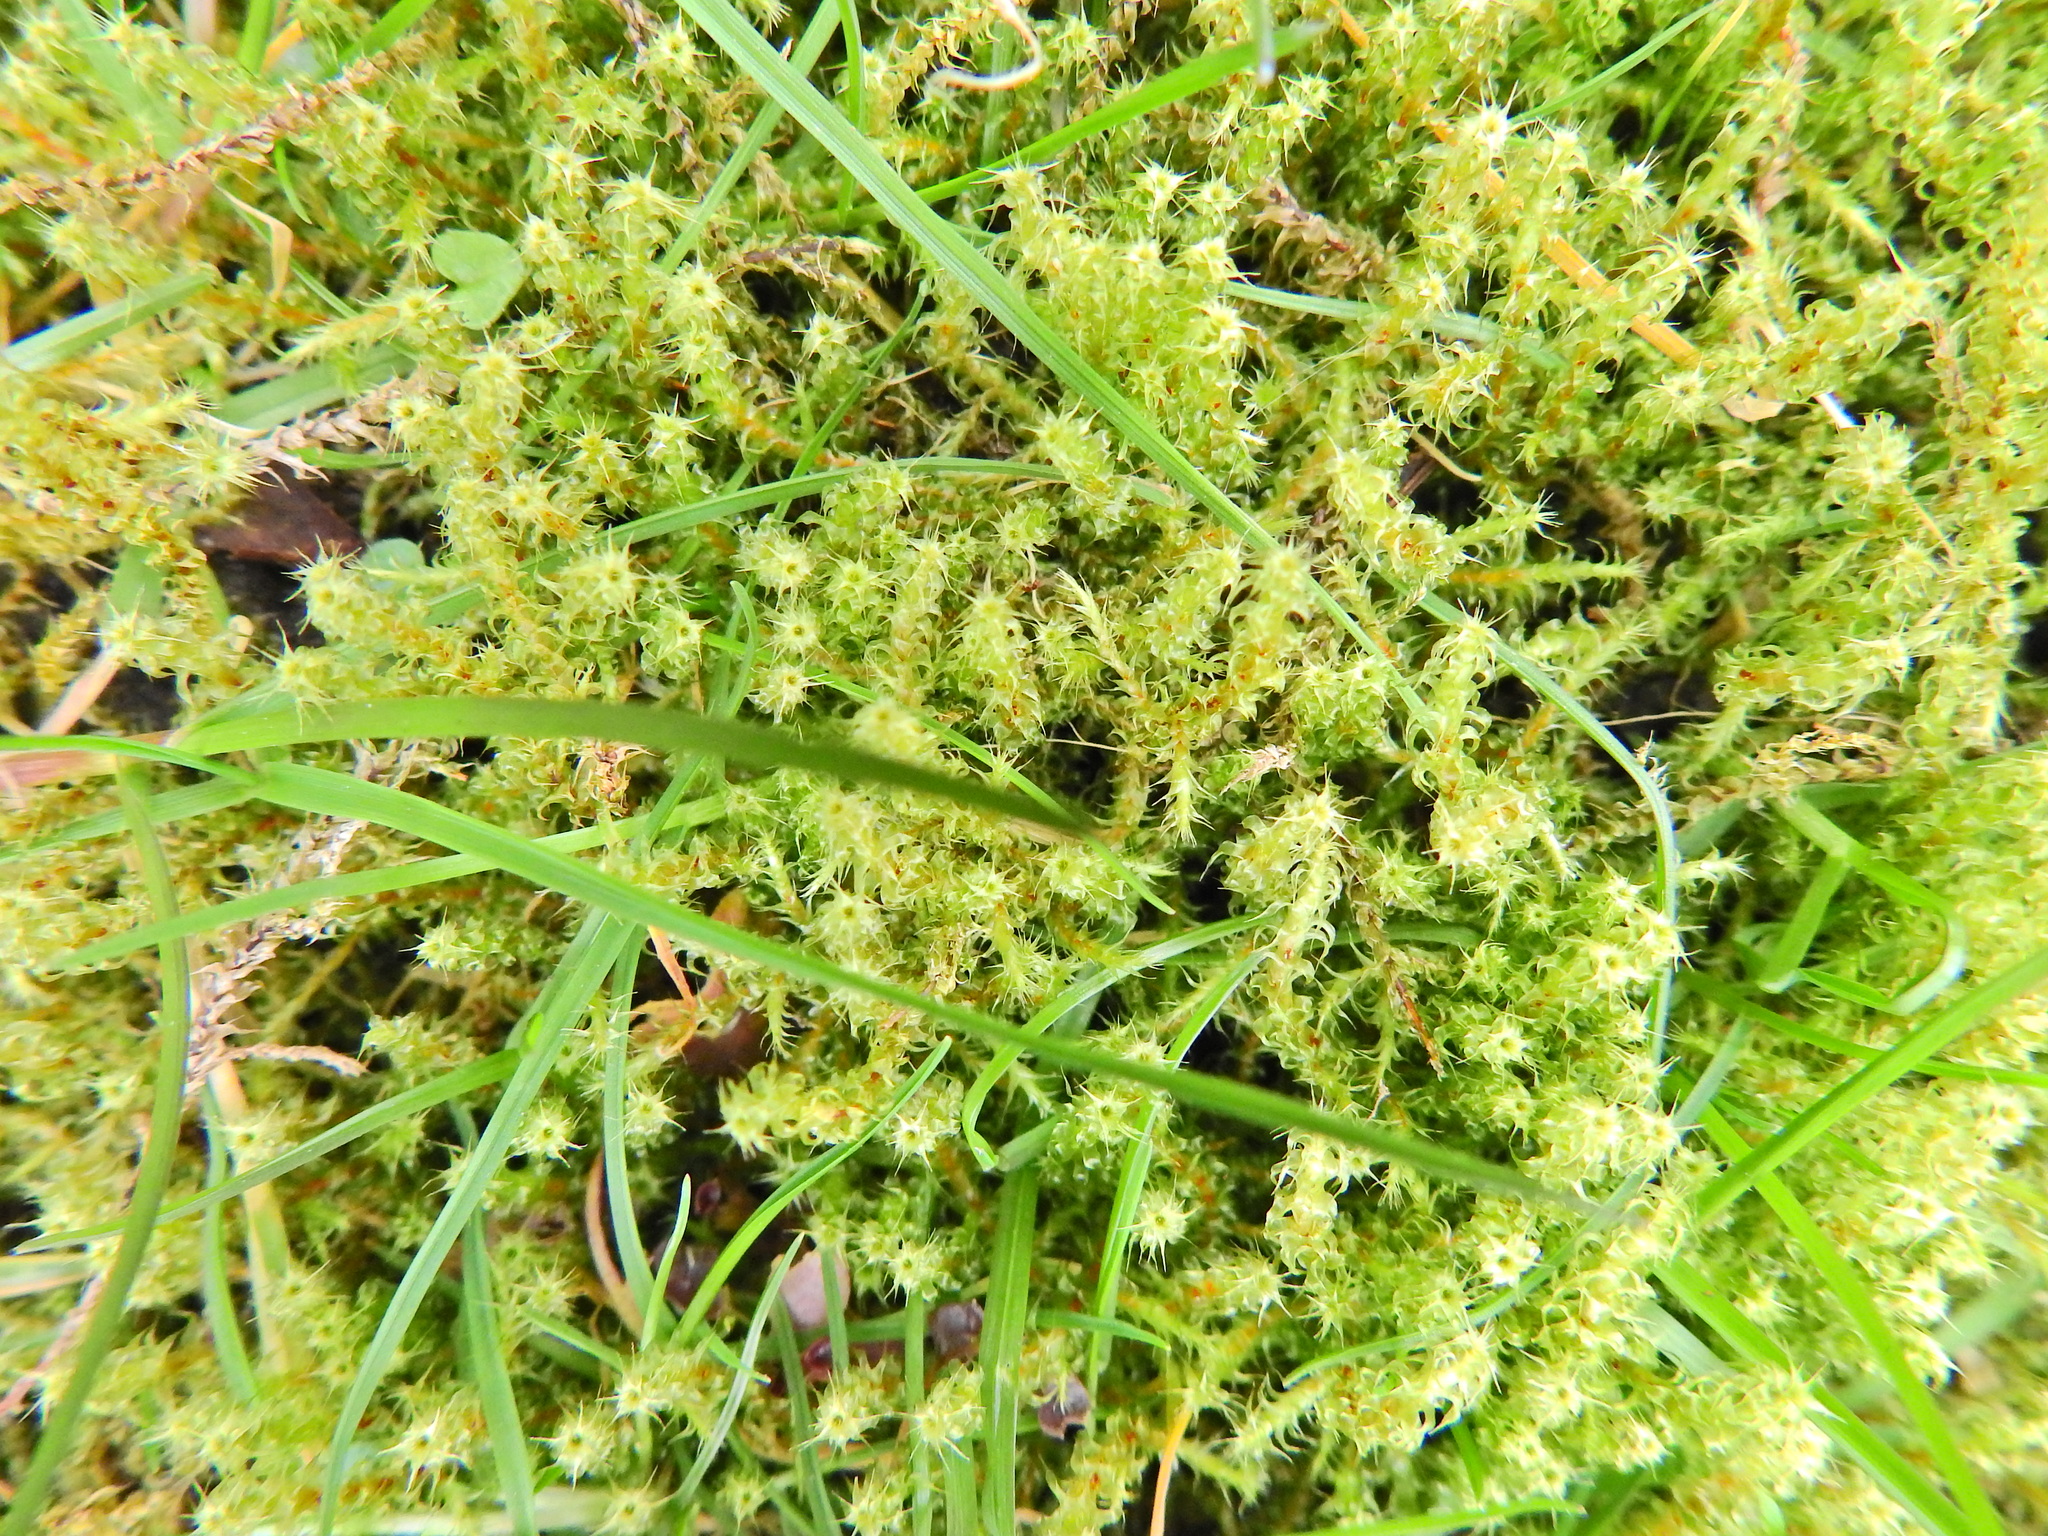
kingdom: Plantae
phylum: Bryophyta
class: Bryopsida
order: Hypnales
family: Hylocomiaceae
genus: Rhytidiadelphus
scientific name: Rhytidiadelphus squarrosus
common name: Springy turf-moss
